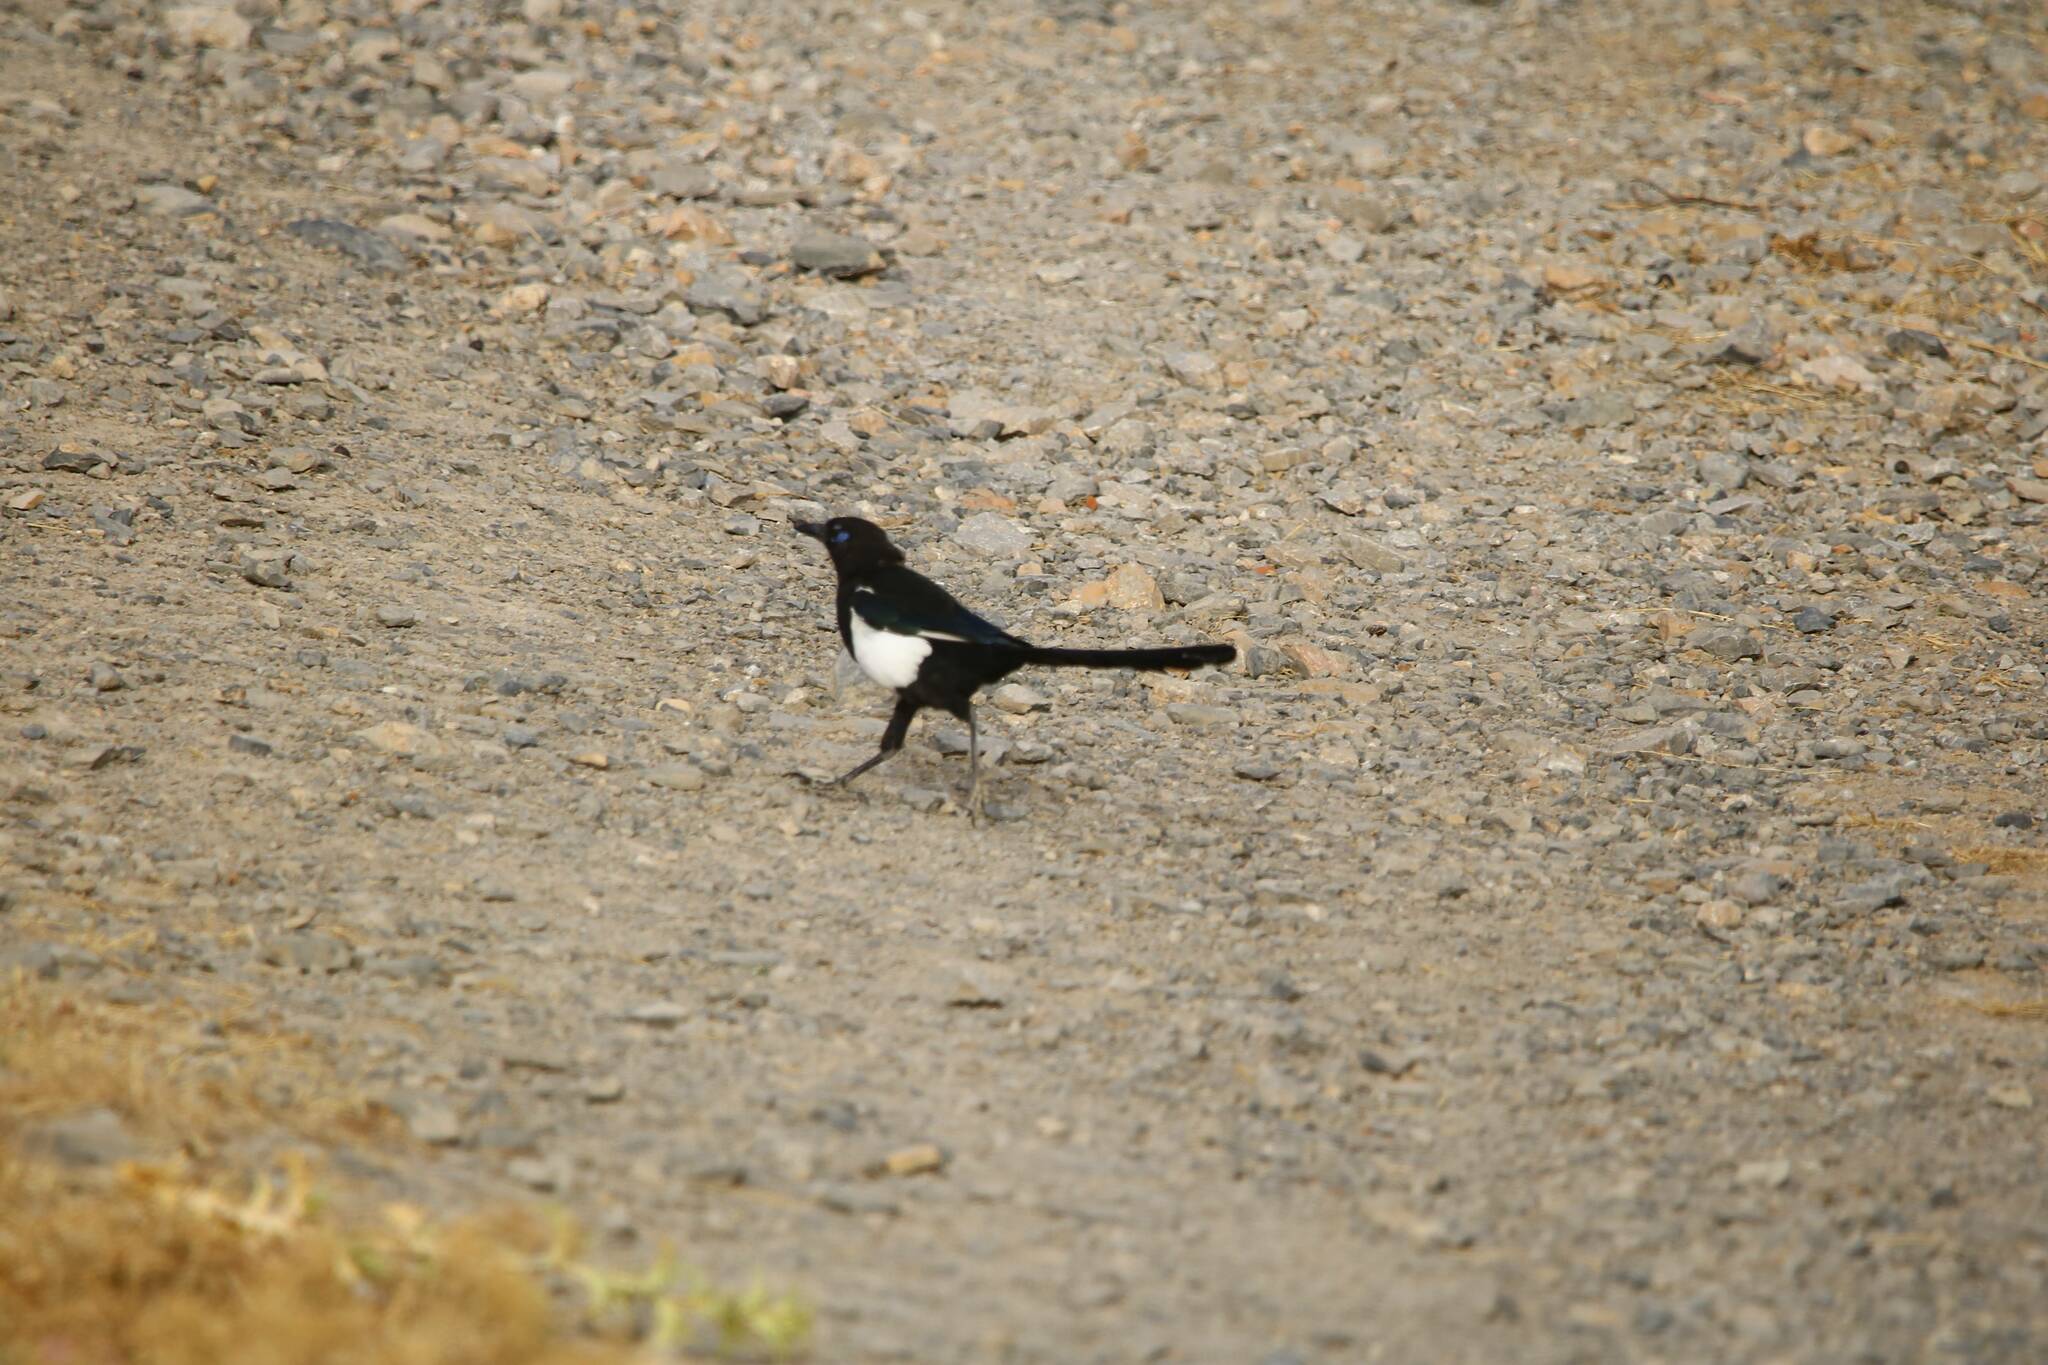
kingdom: Animalia
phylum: Chordata
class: Aves
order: Passeriformes
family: Corvidae
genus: Pica
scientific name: Pica mauritanica
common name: Maghreb magpie
